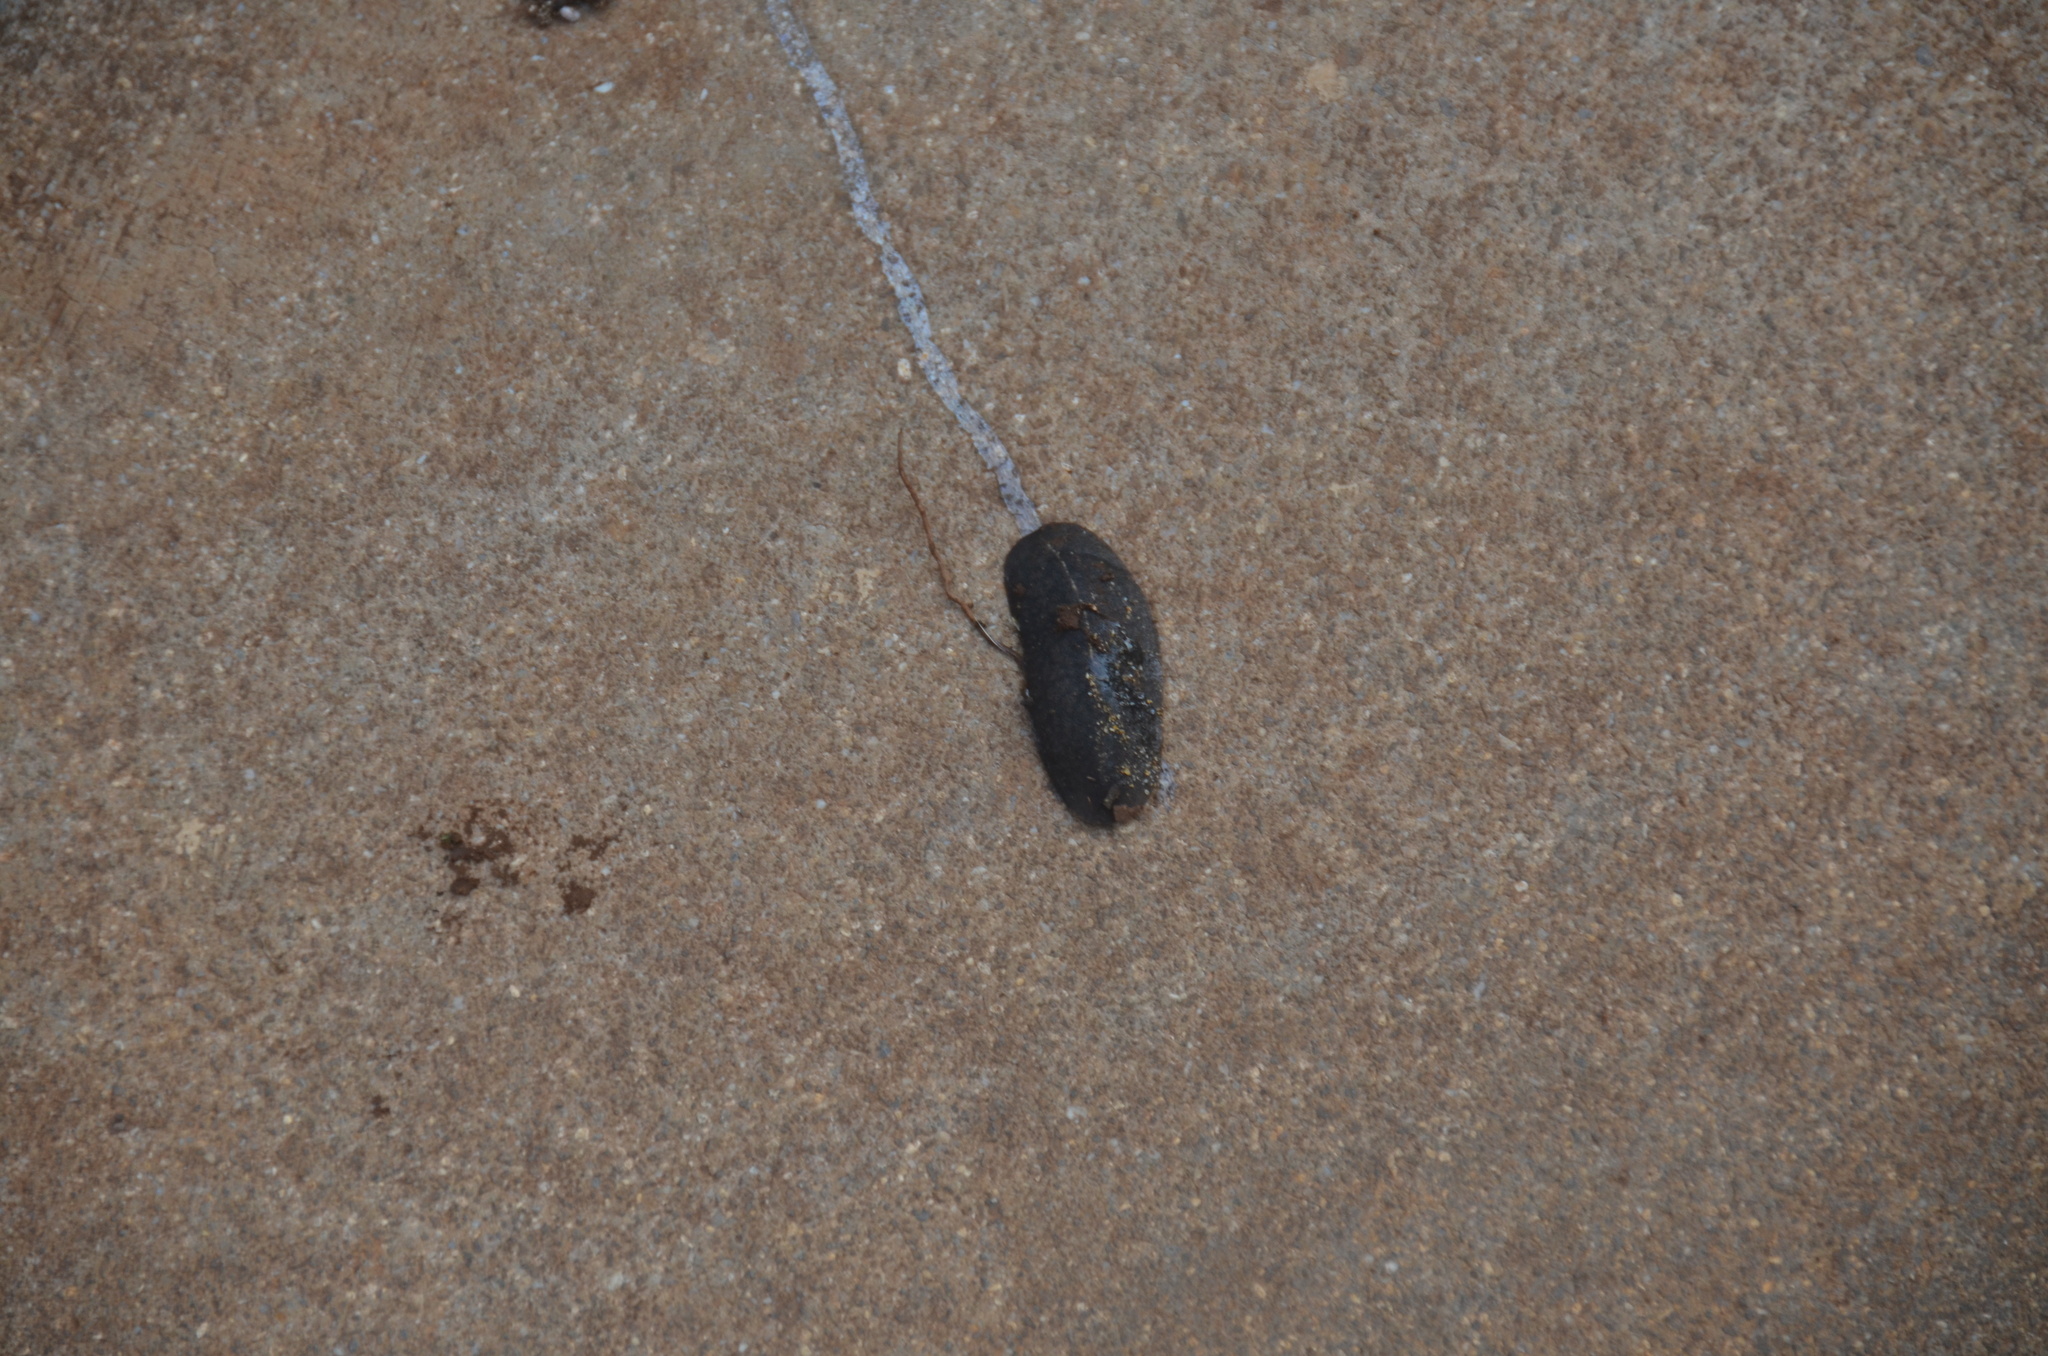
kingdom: Animalia
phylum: Mollusca
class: Gastropoda
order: Systellommatophora
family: Veronicellidae
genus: Laevicaulis
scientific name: Laevicaulis alte
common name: Tropical leatherleaf
